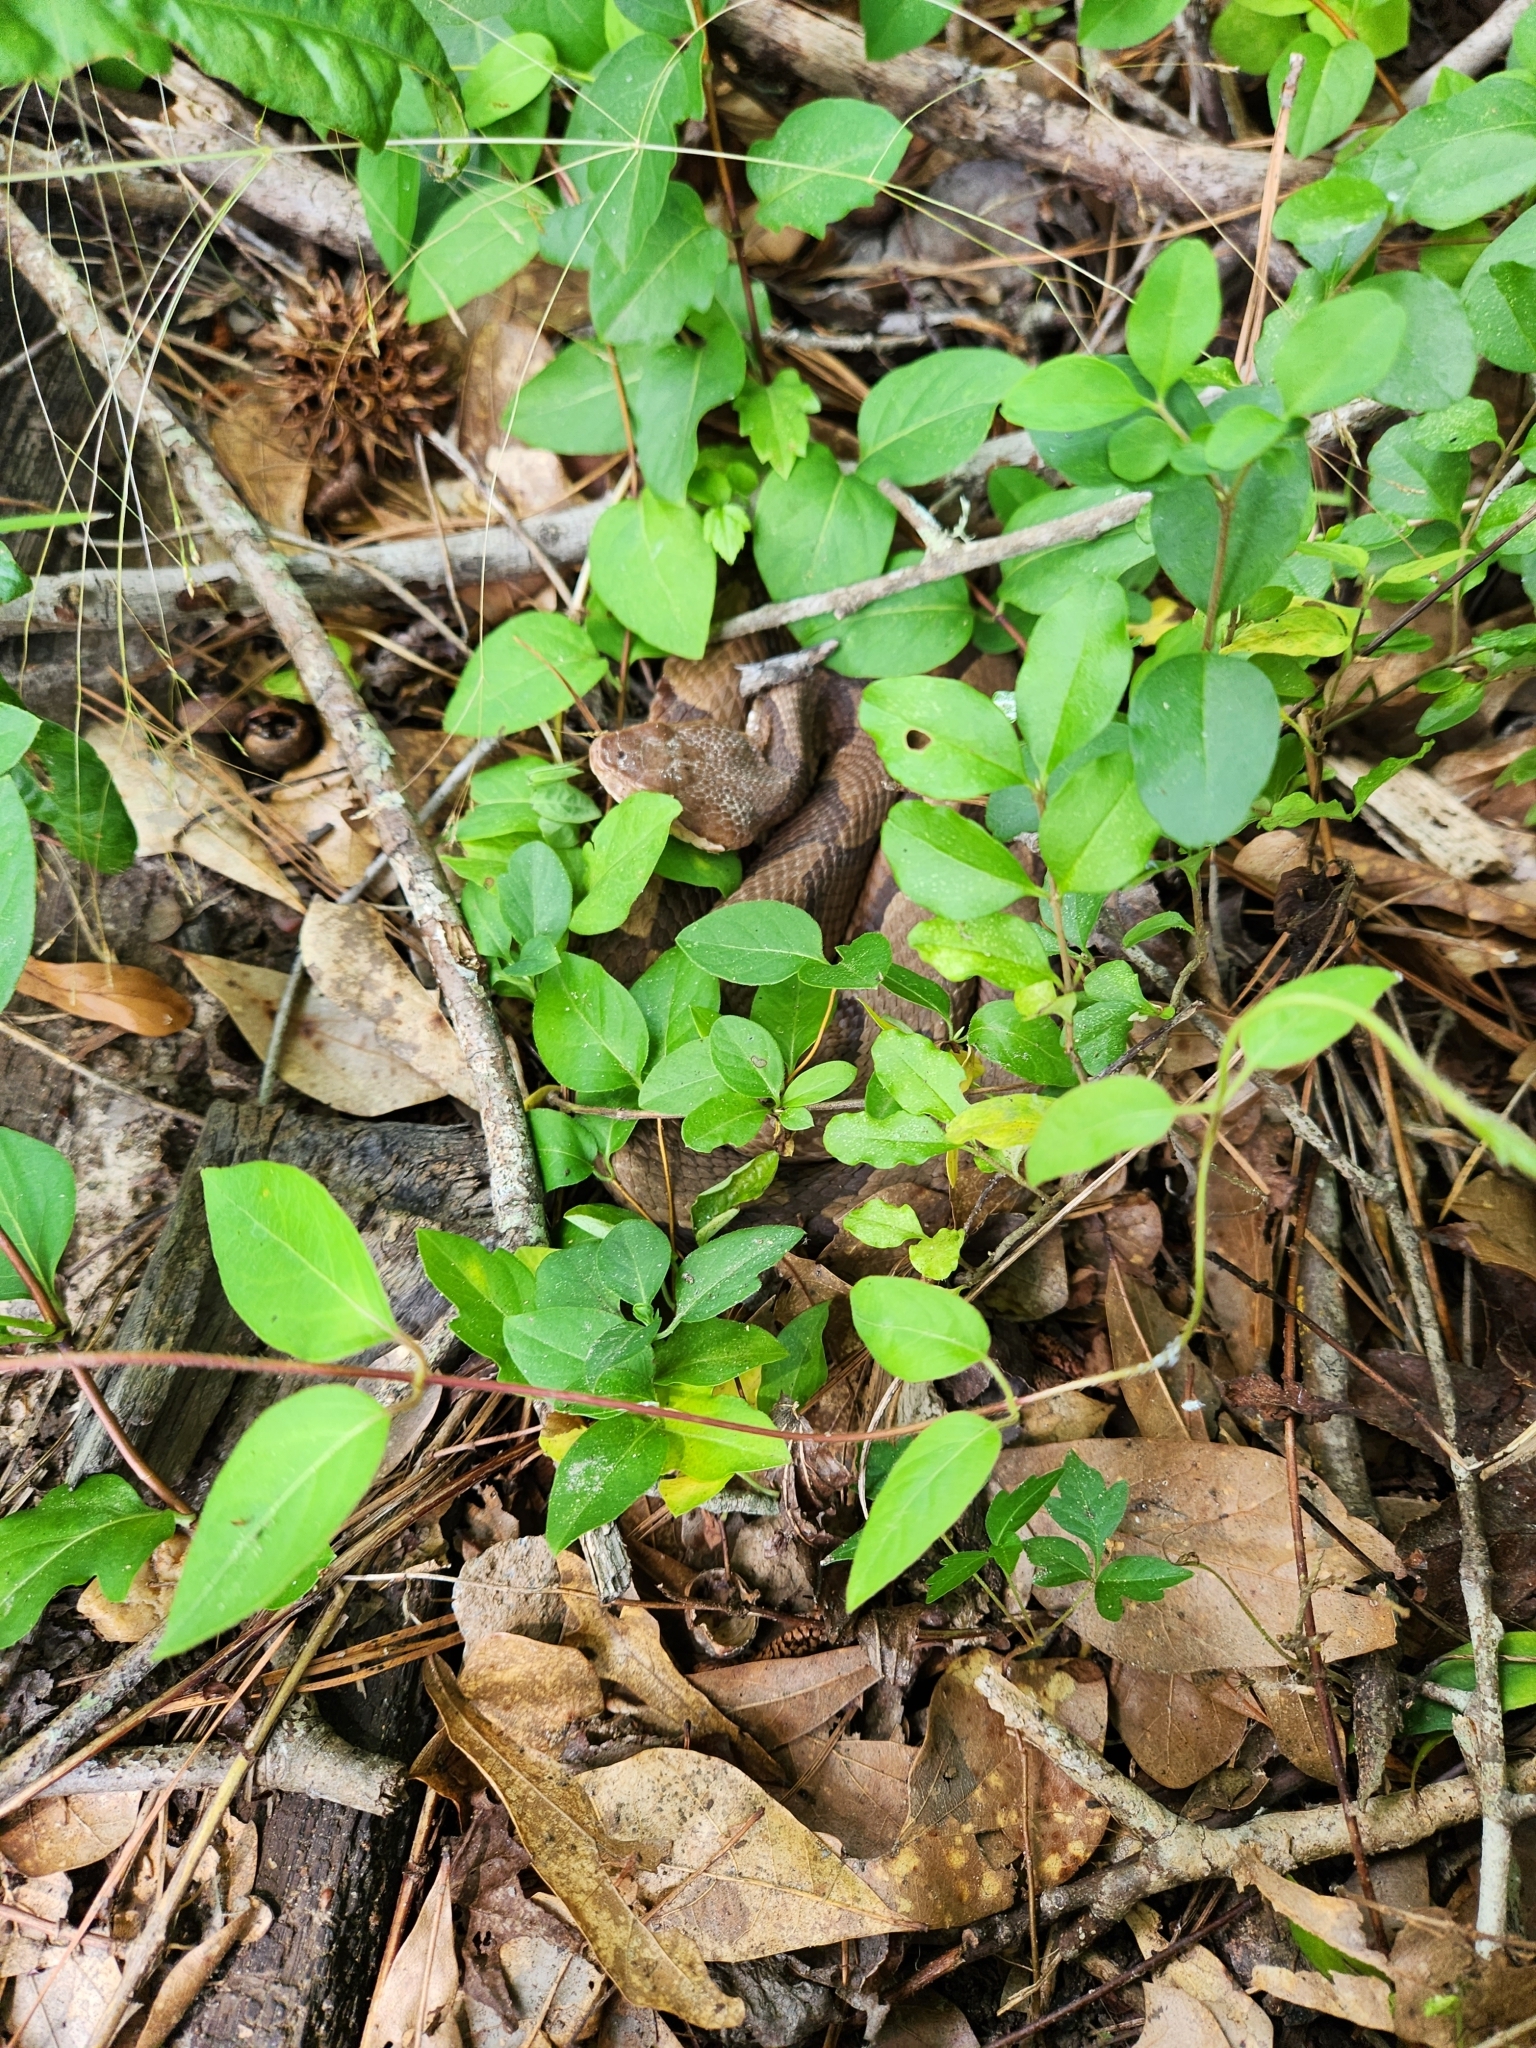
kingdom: Animalia
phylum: Chordata
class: Squamata
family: Viperidae
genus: Agkistrodon
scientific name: Agkistrodon contortrix
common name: Northern copperhead
